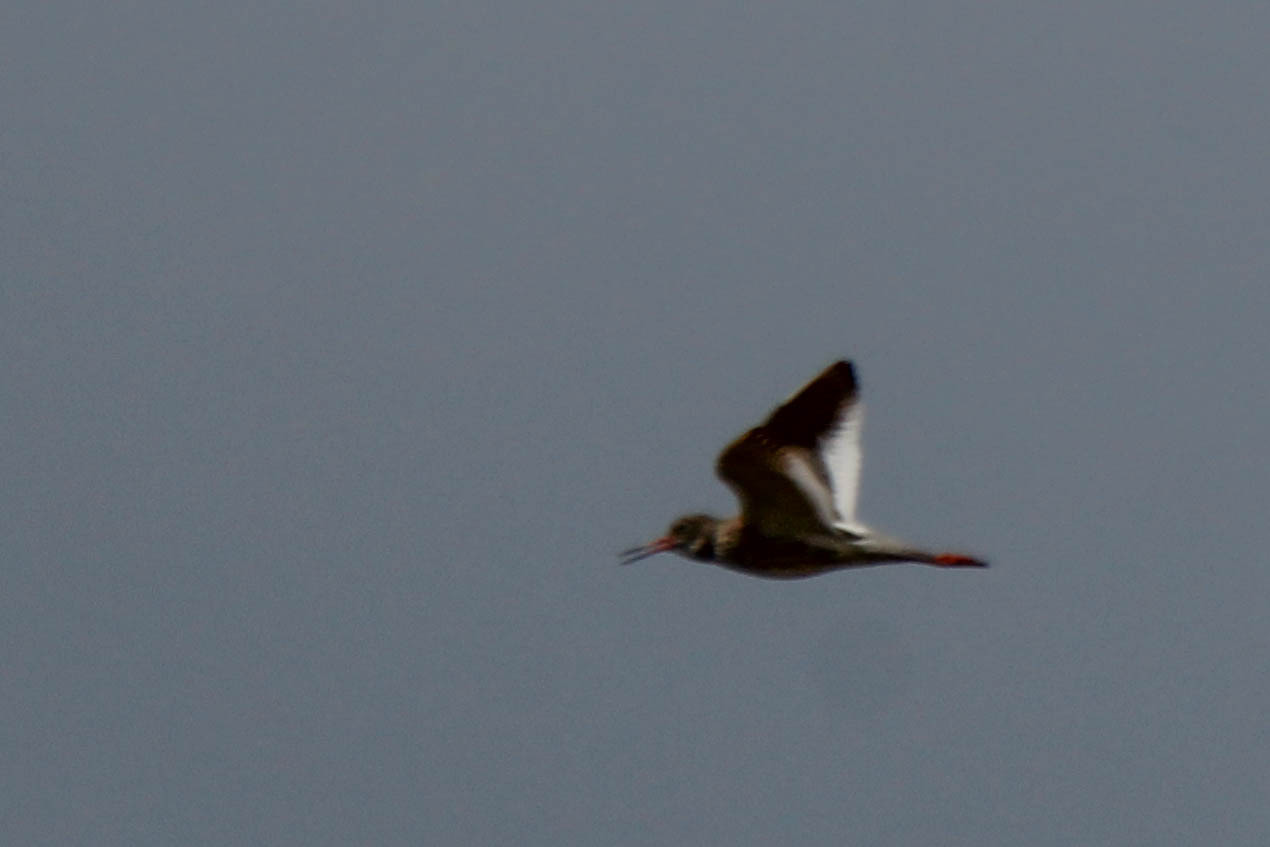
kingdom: Animalia
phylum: Chordata
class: Aves
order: Charadriiformes
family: Scolopacidae
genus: Tringa
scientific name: Tringa totanus
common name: Common redshank
